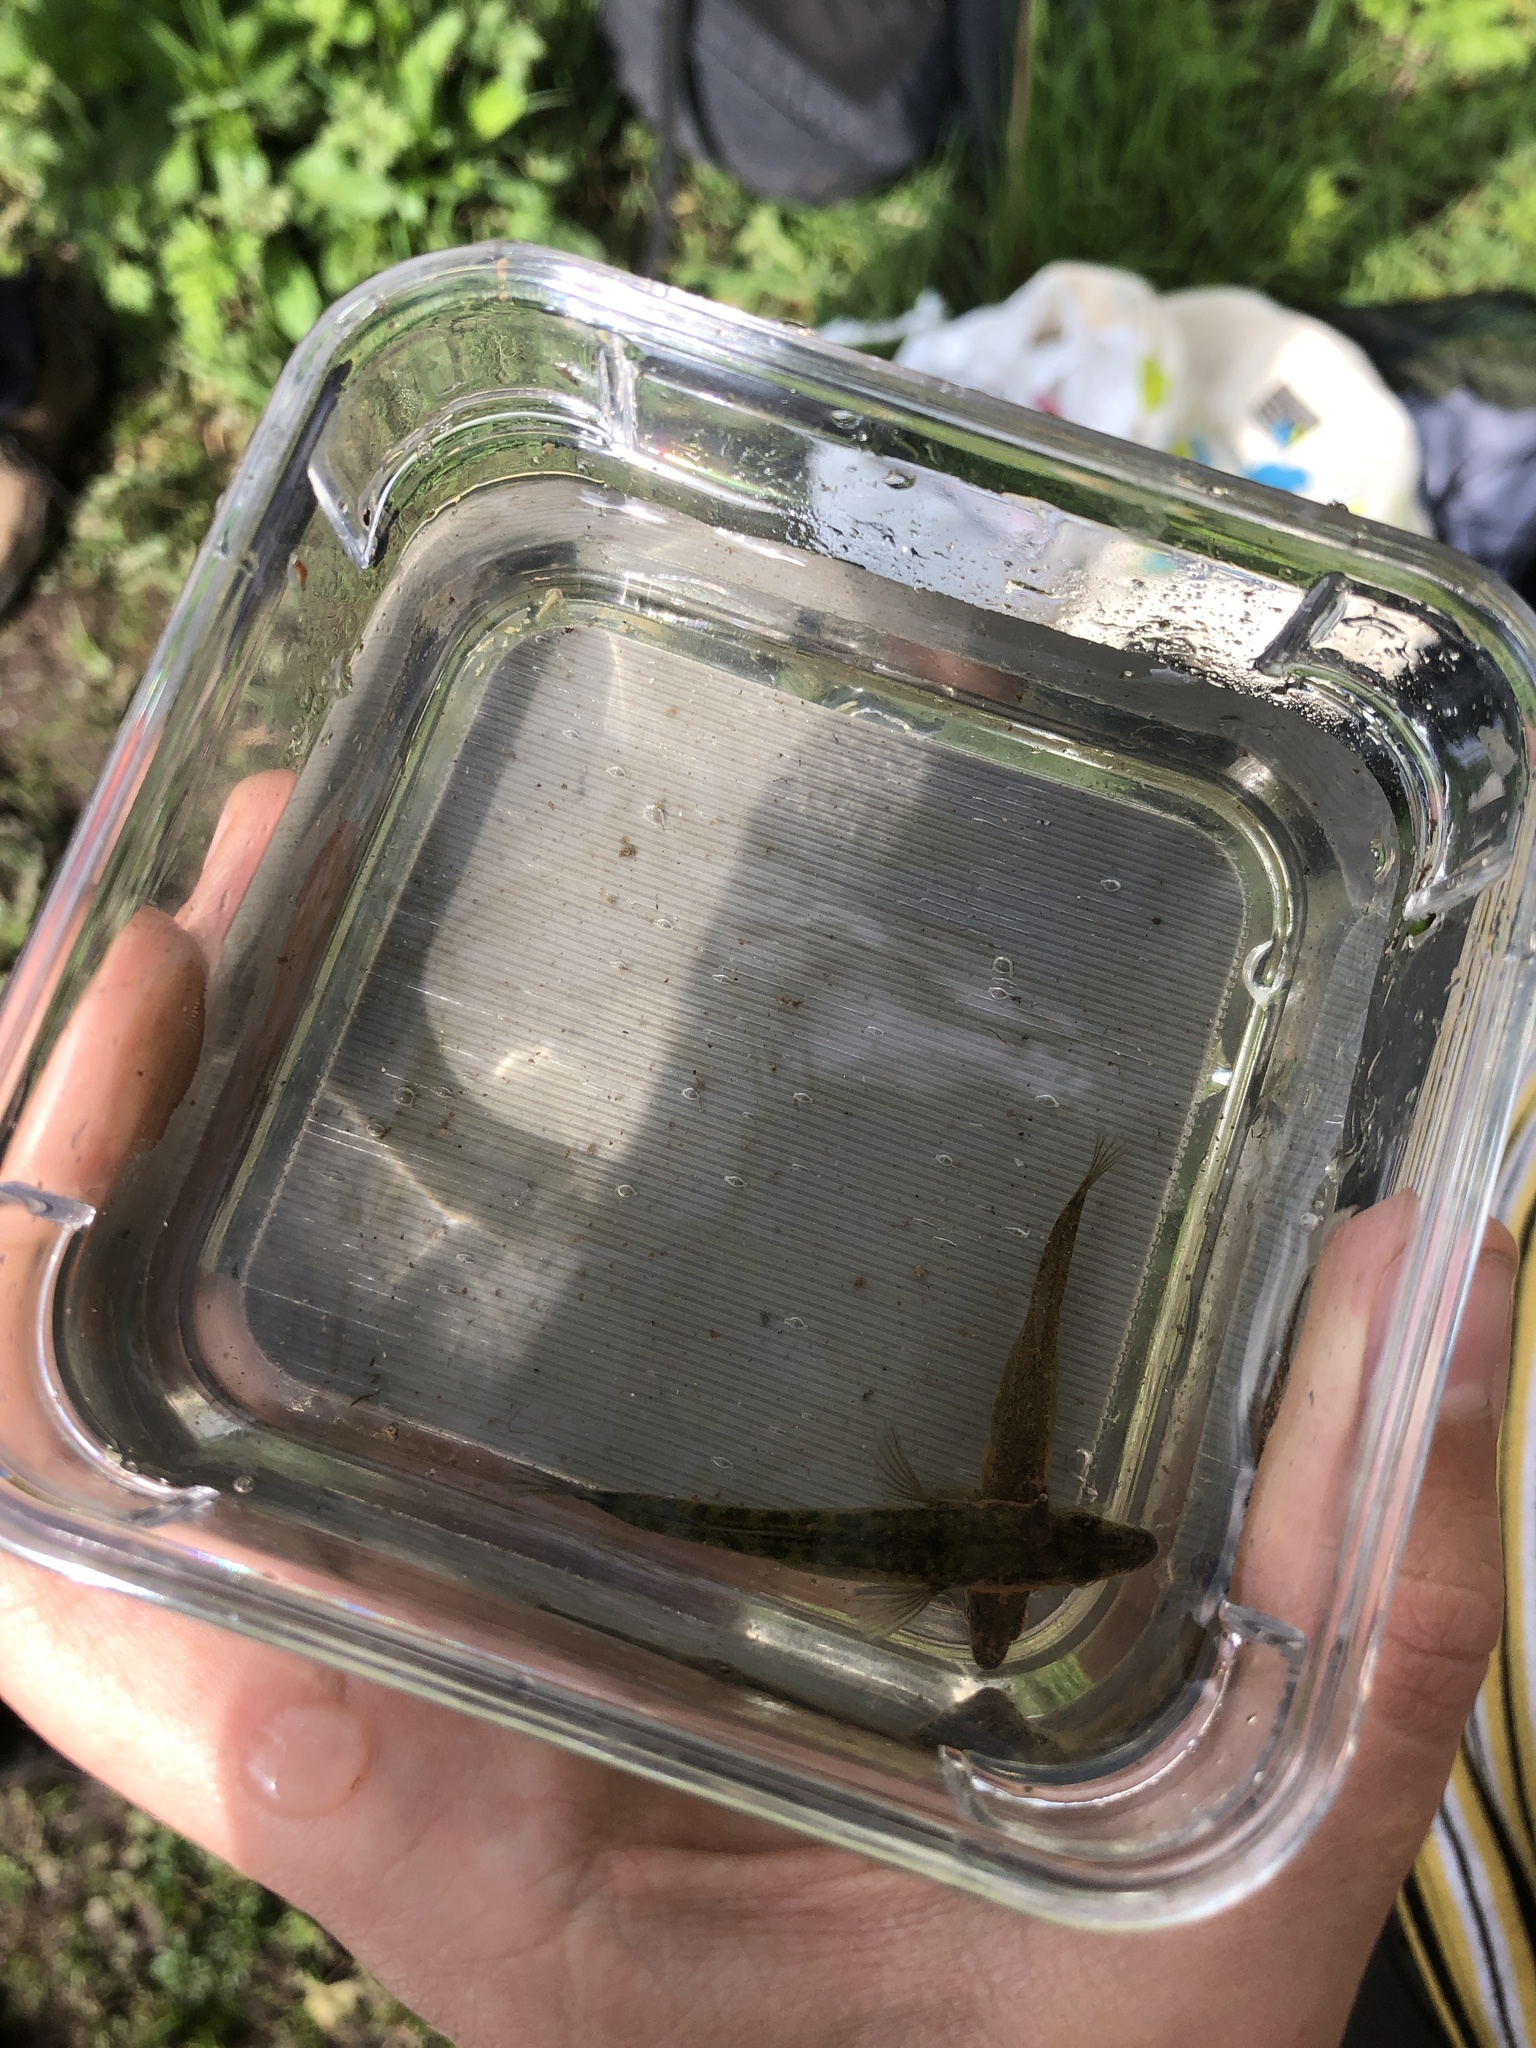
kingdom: Animalia
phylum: Chordata
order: Gasterosteiformes
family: Gasterosteidae
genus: Gasterosteus
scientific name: Gasterosteus aculeatus
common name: Three-spined stickleback
